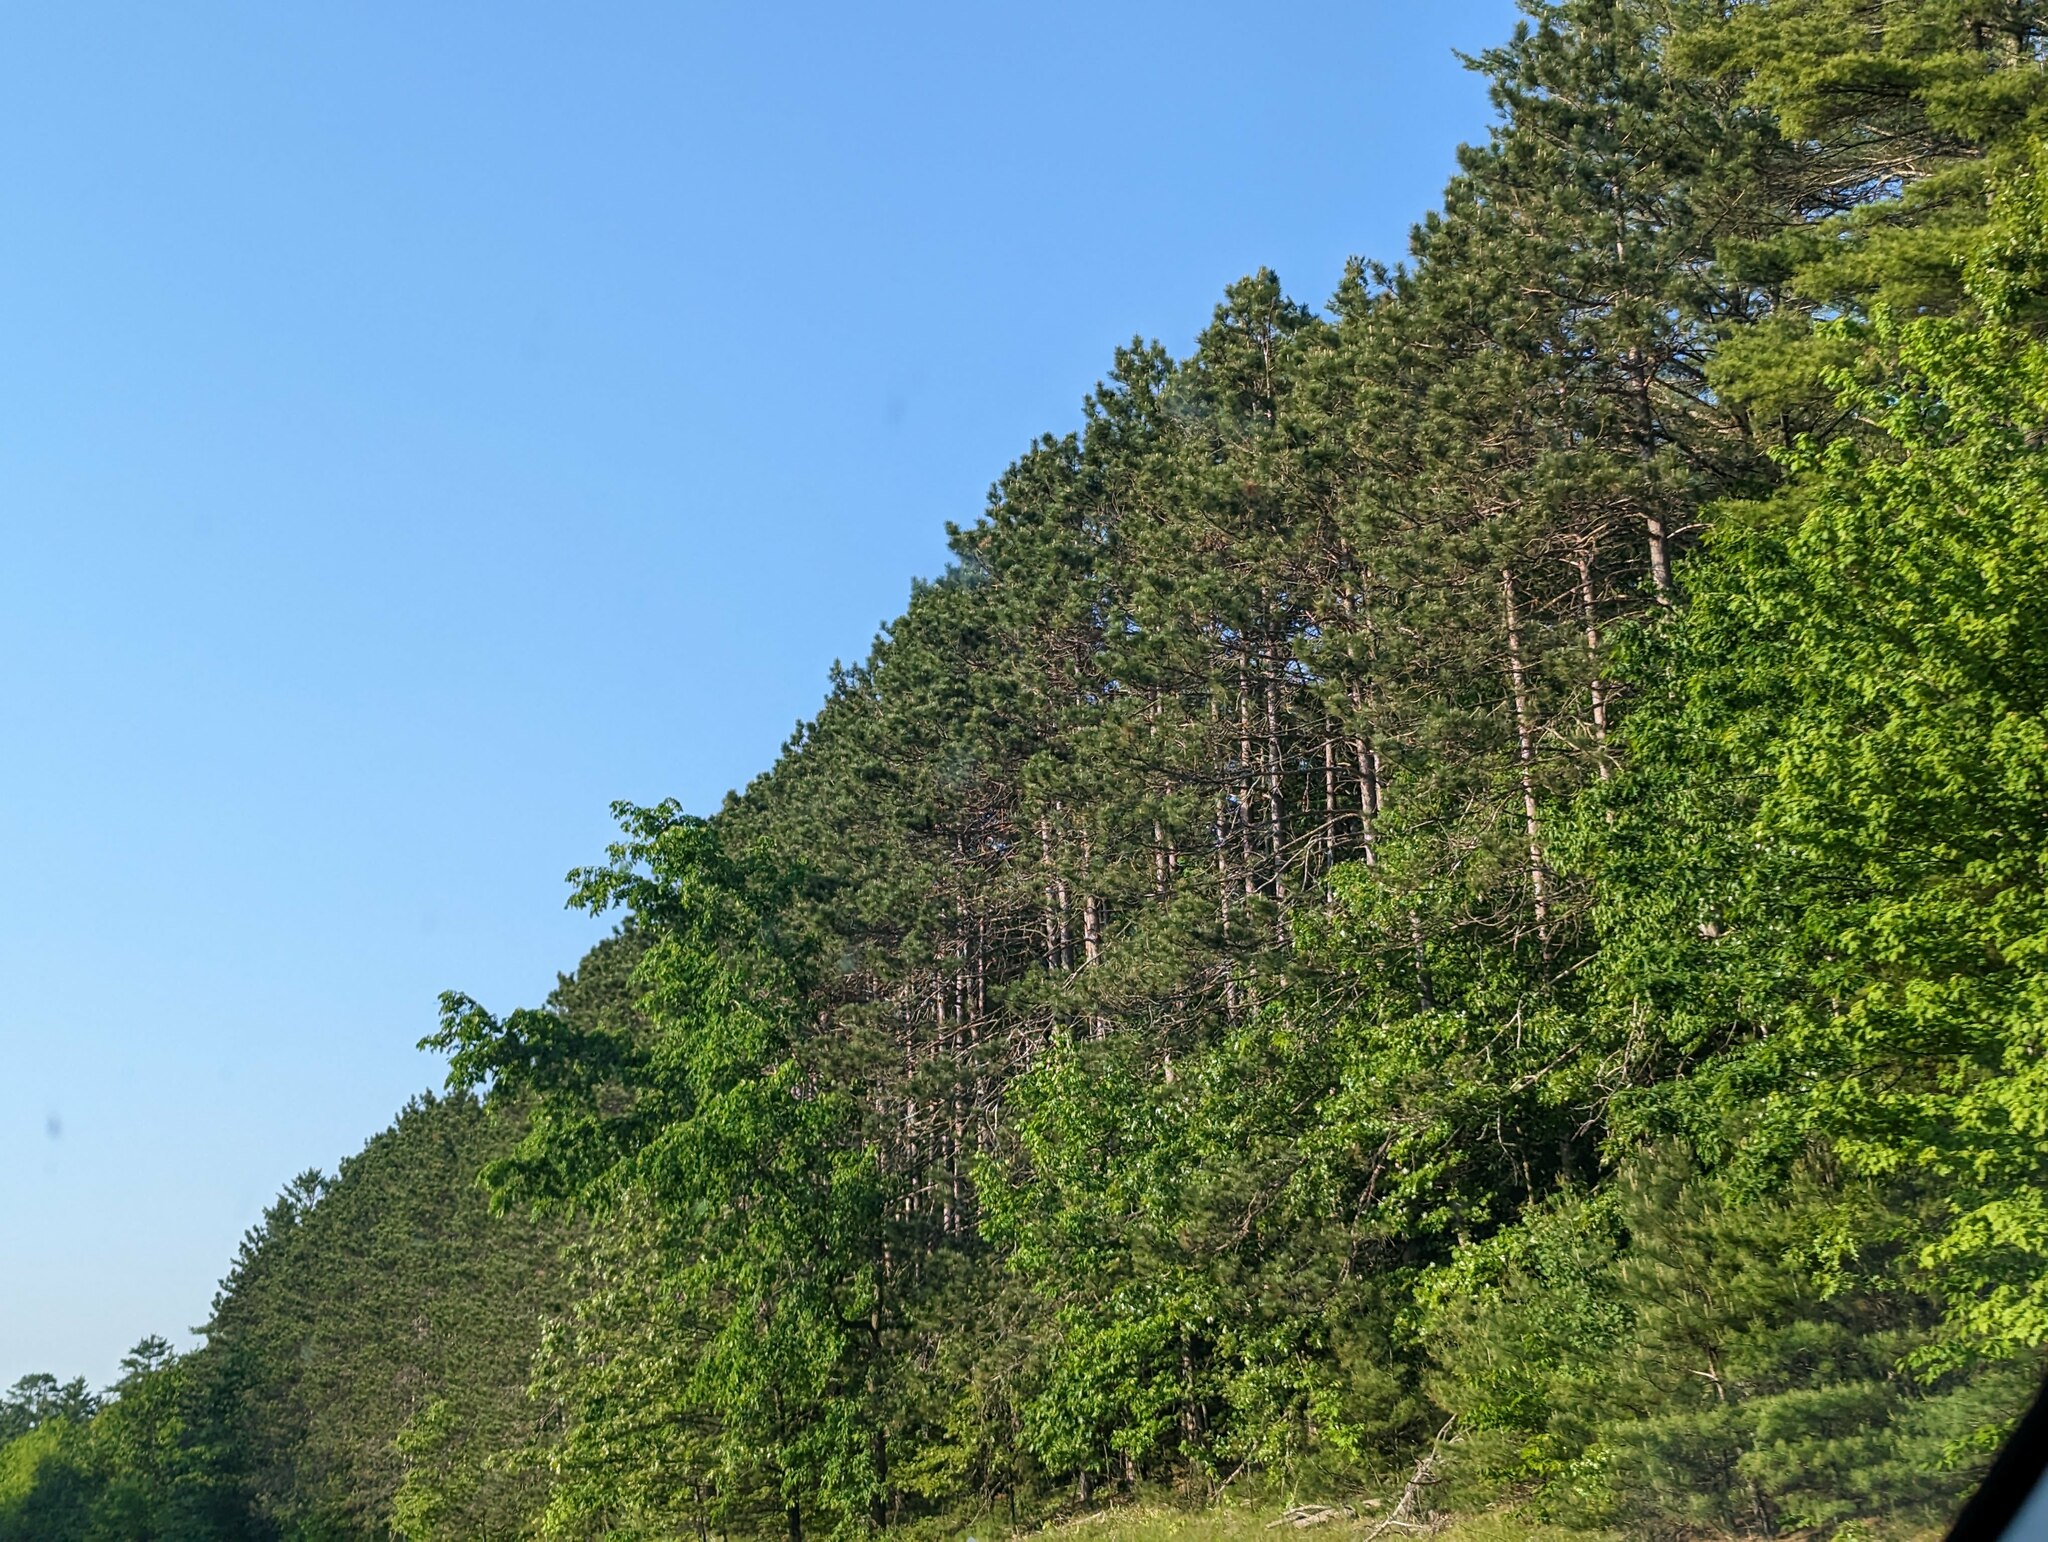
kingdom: Plantae
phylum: Tracheophyta
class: Pinopsida
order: Pinales
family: Pinaceae
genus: Pinus
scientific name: Pinus resinosa
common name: Norway pine
